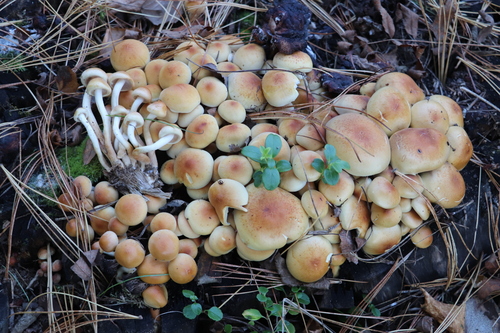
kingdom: Fungi
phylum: Basidiomycota
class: Agaricomycetes
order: Agaricales
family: Strophariaceae
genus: Hypholoma
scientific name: Hypholoma capnoides
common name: Conifer tuft
